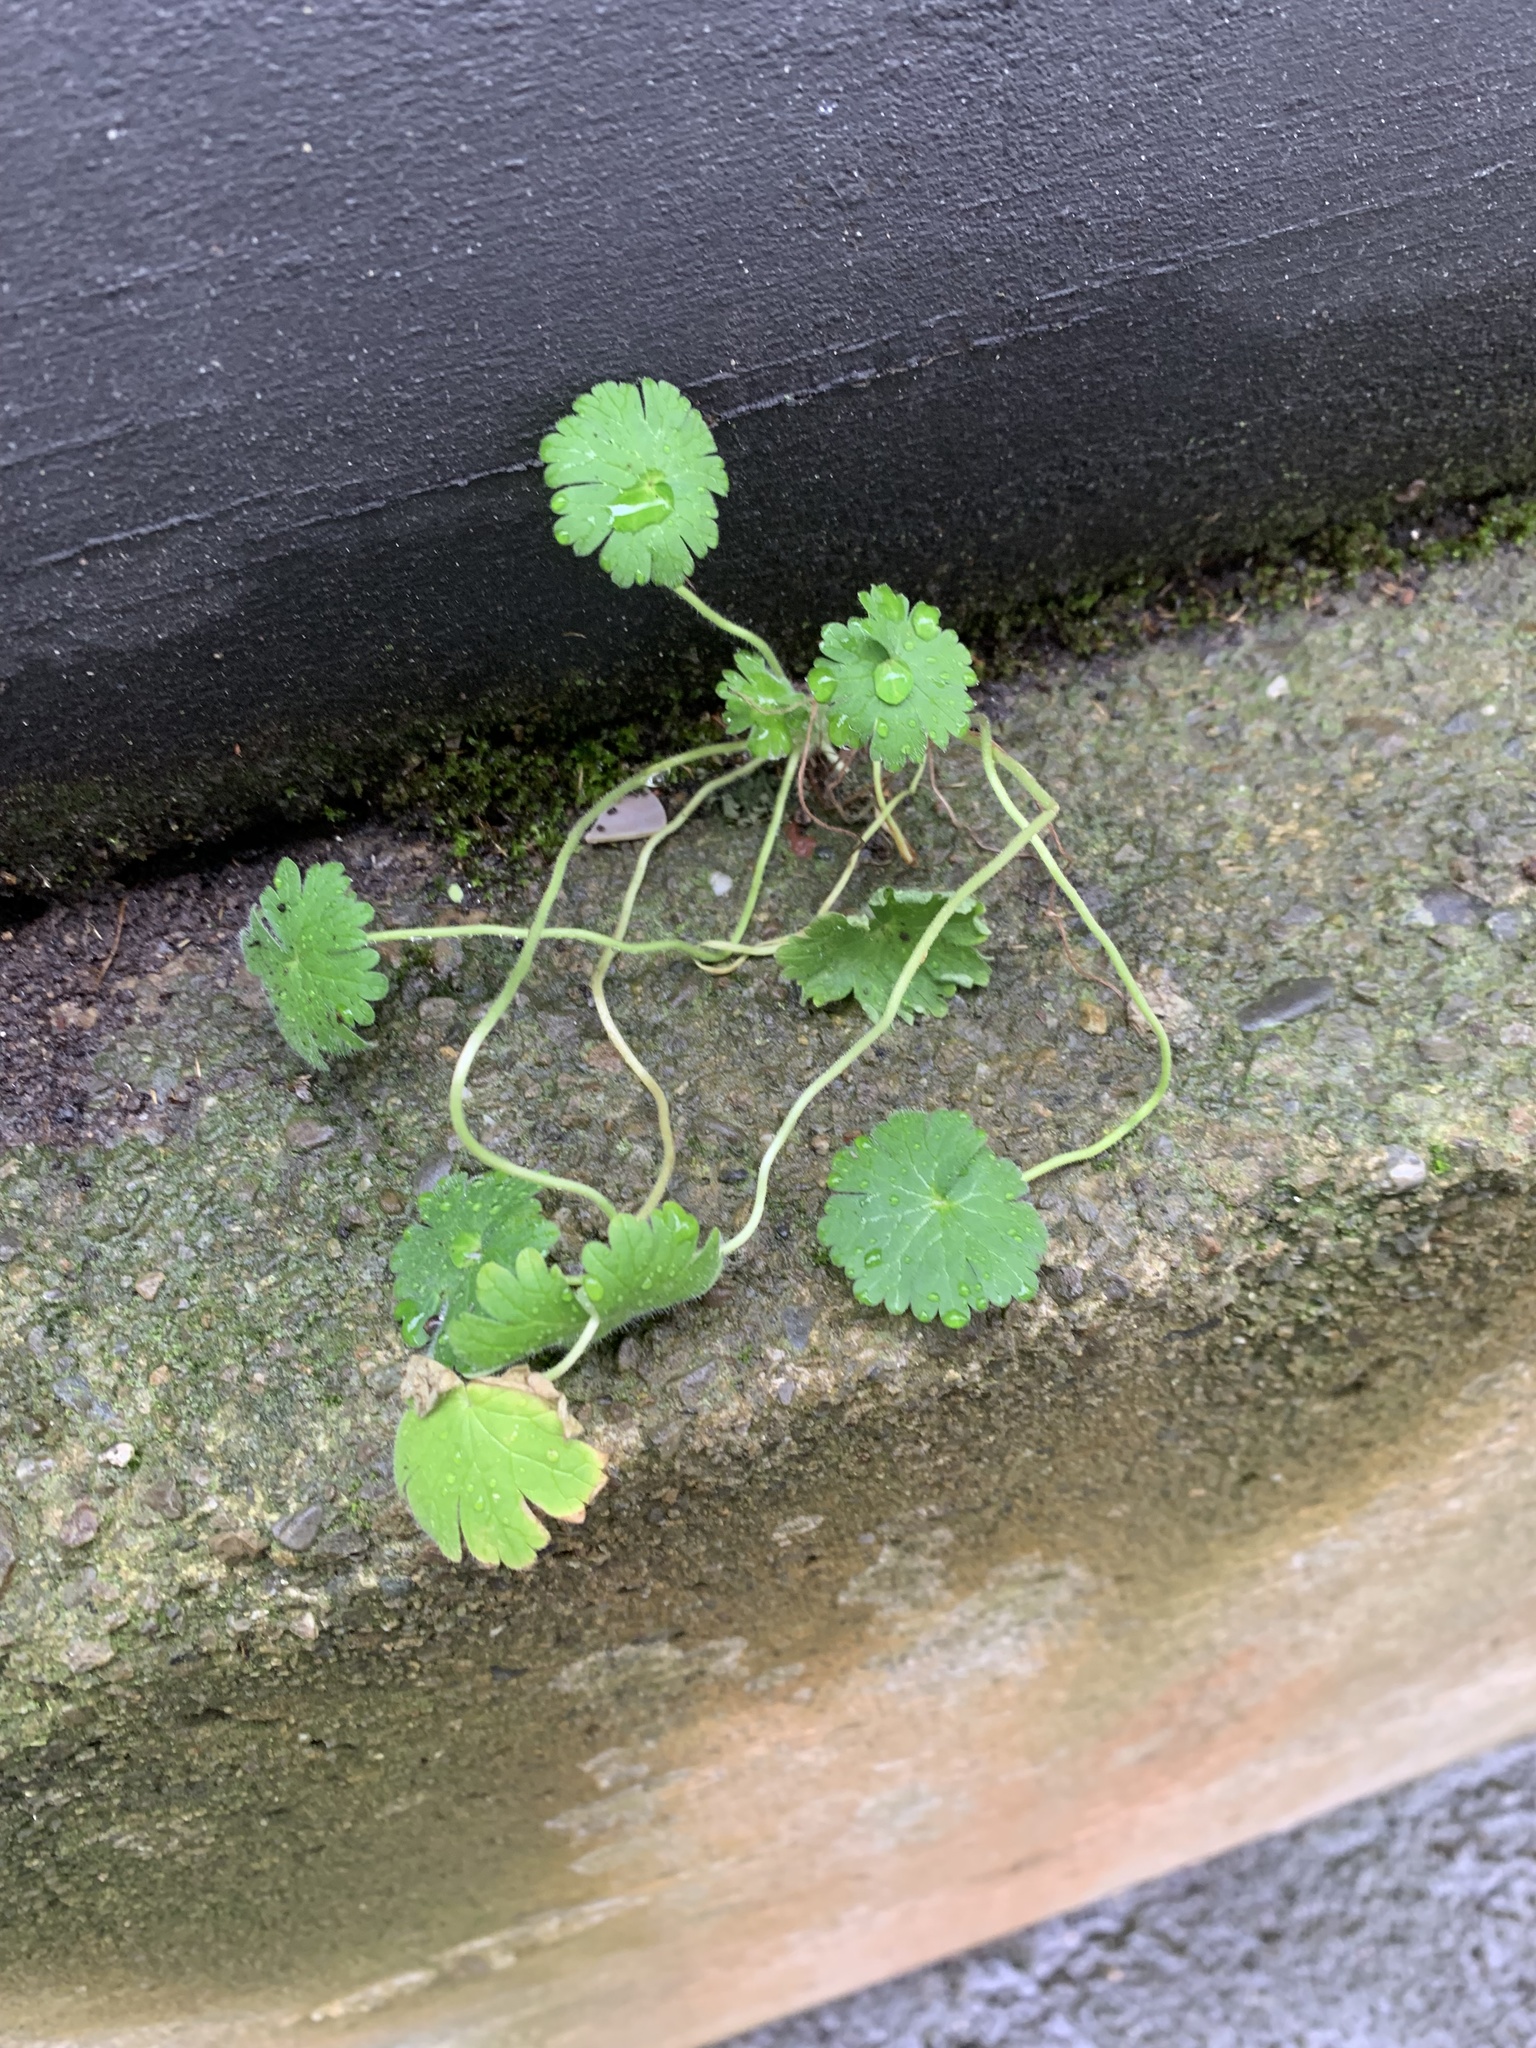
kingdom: Plantae
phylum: Tracheophyta
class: Magnoliopsida
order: Geraniales
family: Geraniaceae
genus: Geranium
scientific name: Geranium molle
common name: Dove's-foot crane's-bill
